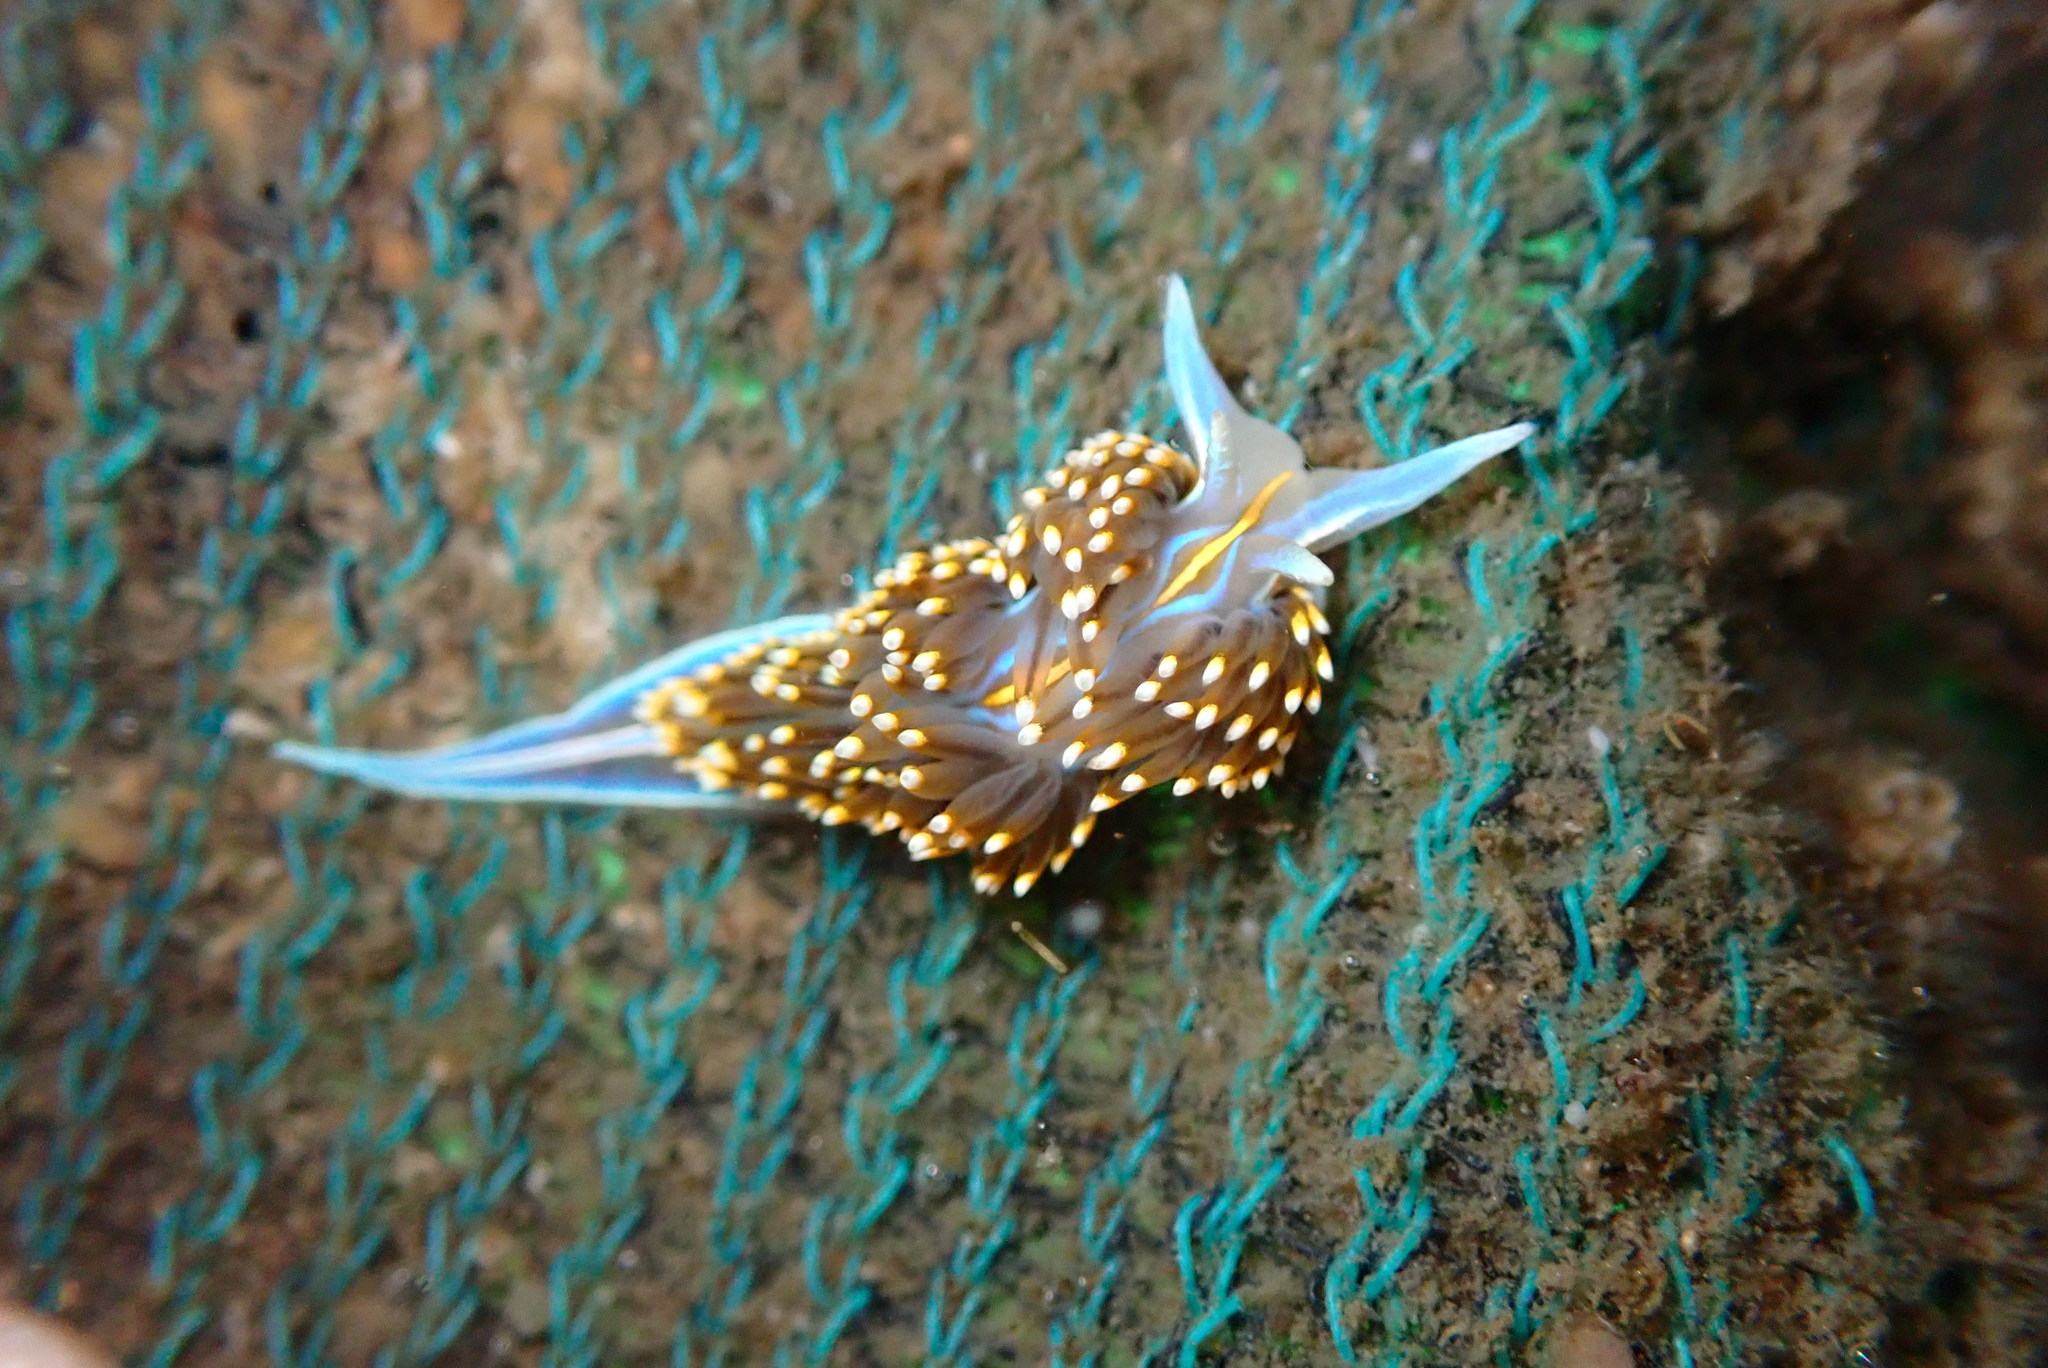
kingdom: Animalia
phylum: Mollusca
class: Gastropoda
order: Nudibranchia
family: Myrrhinidae
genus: Hermissenda
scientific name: Hermissenda opalescens
